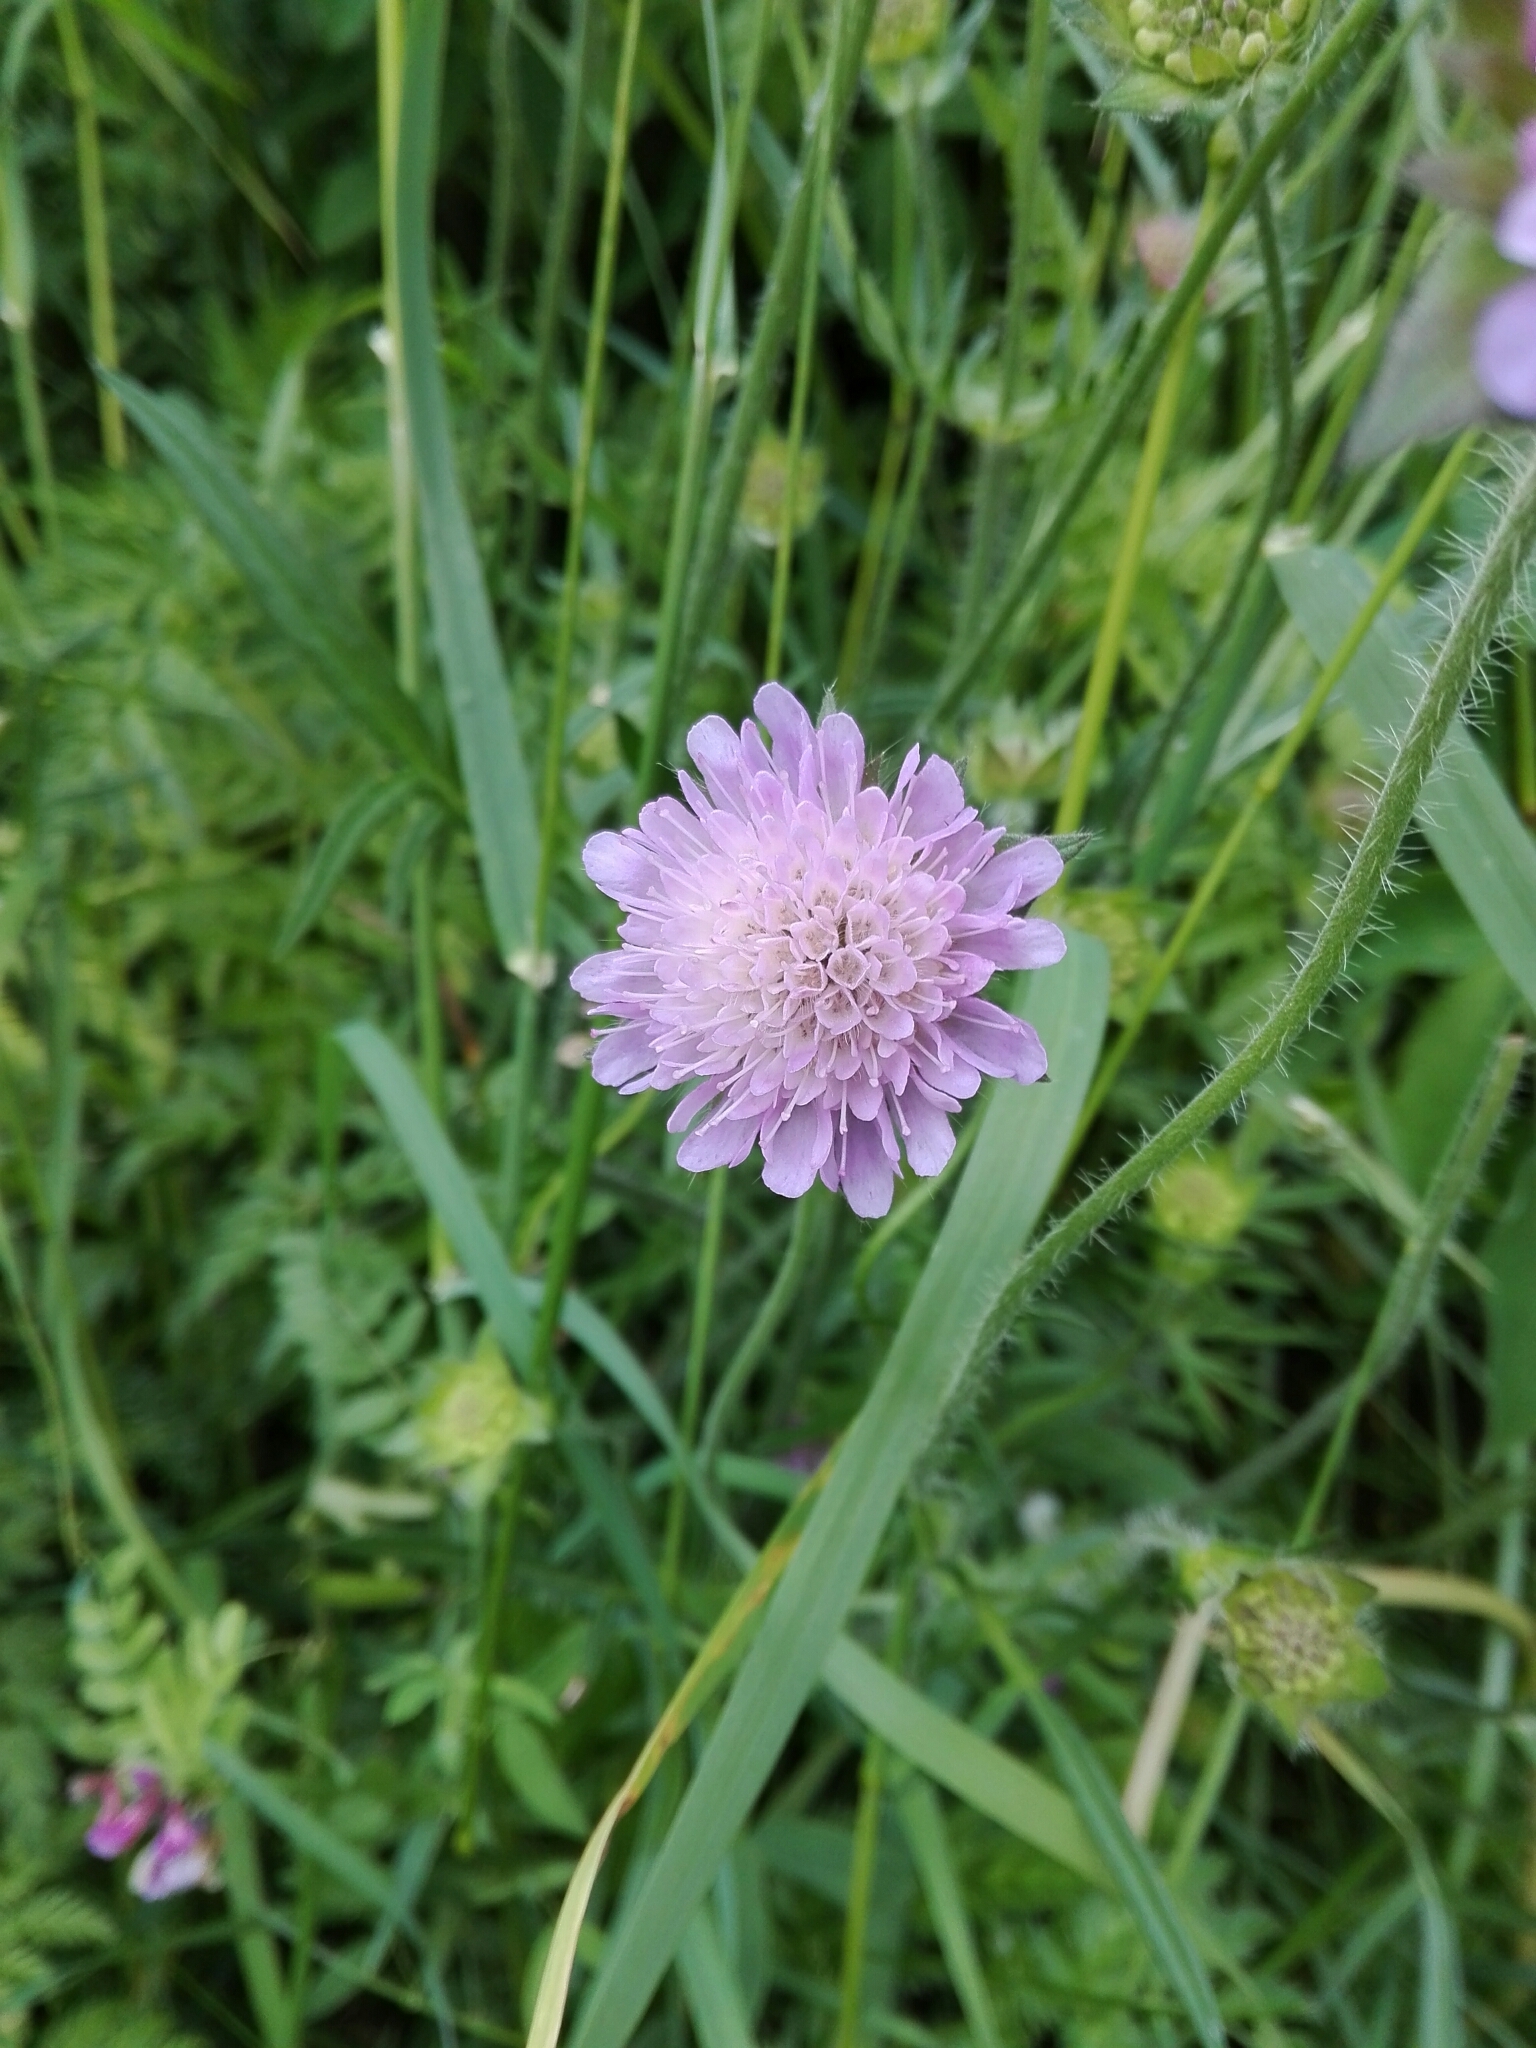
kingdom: Plantae
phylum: Tracheophyta
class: Magnoliopsida
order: Dipsacales
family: Caprifoliaceae
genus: Knautia
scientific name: Knautia arvensis
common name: Field scabiosa
